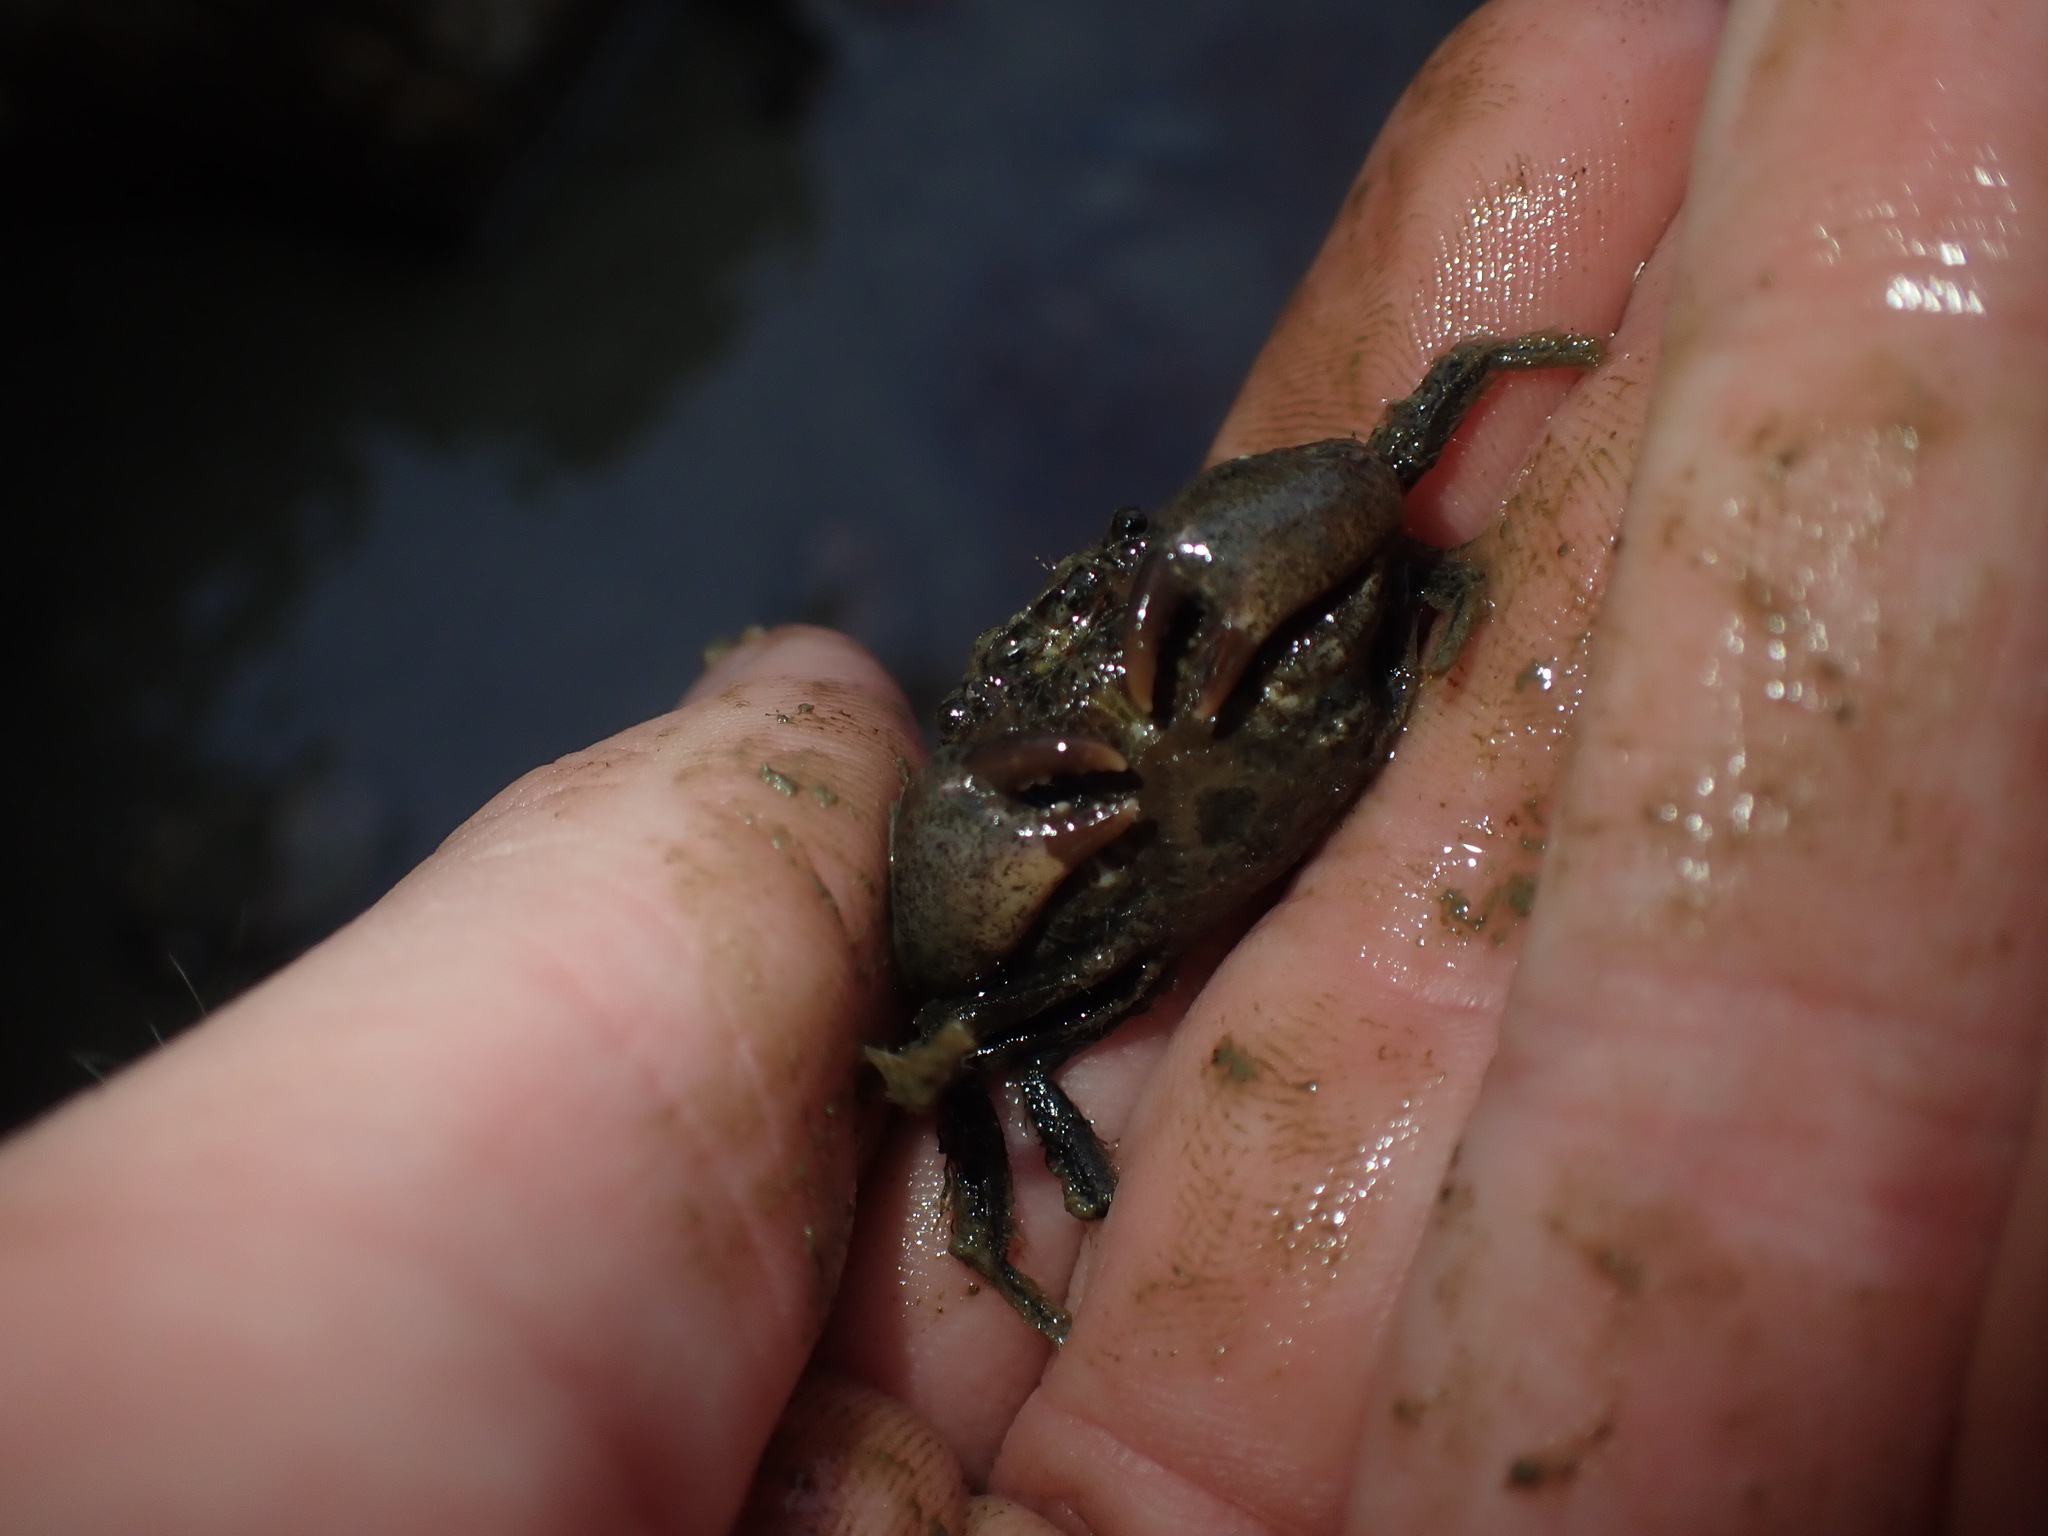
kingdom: Animalia
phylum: Arthropoda
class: Malacostraca
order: Decapoda
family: Pilumnidae
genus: Pilumnopeus
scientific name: Pilumnopeus serratifrons
